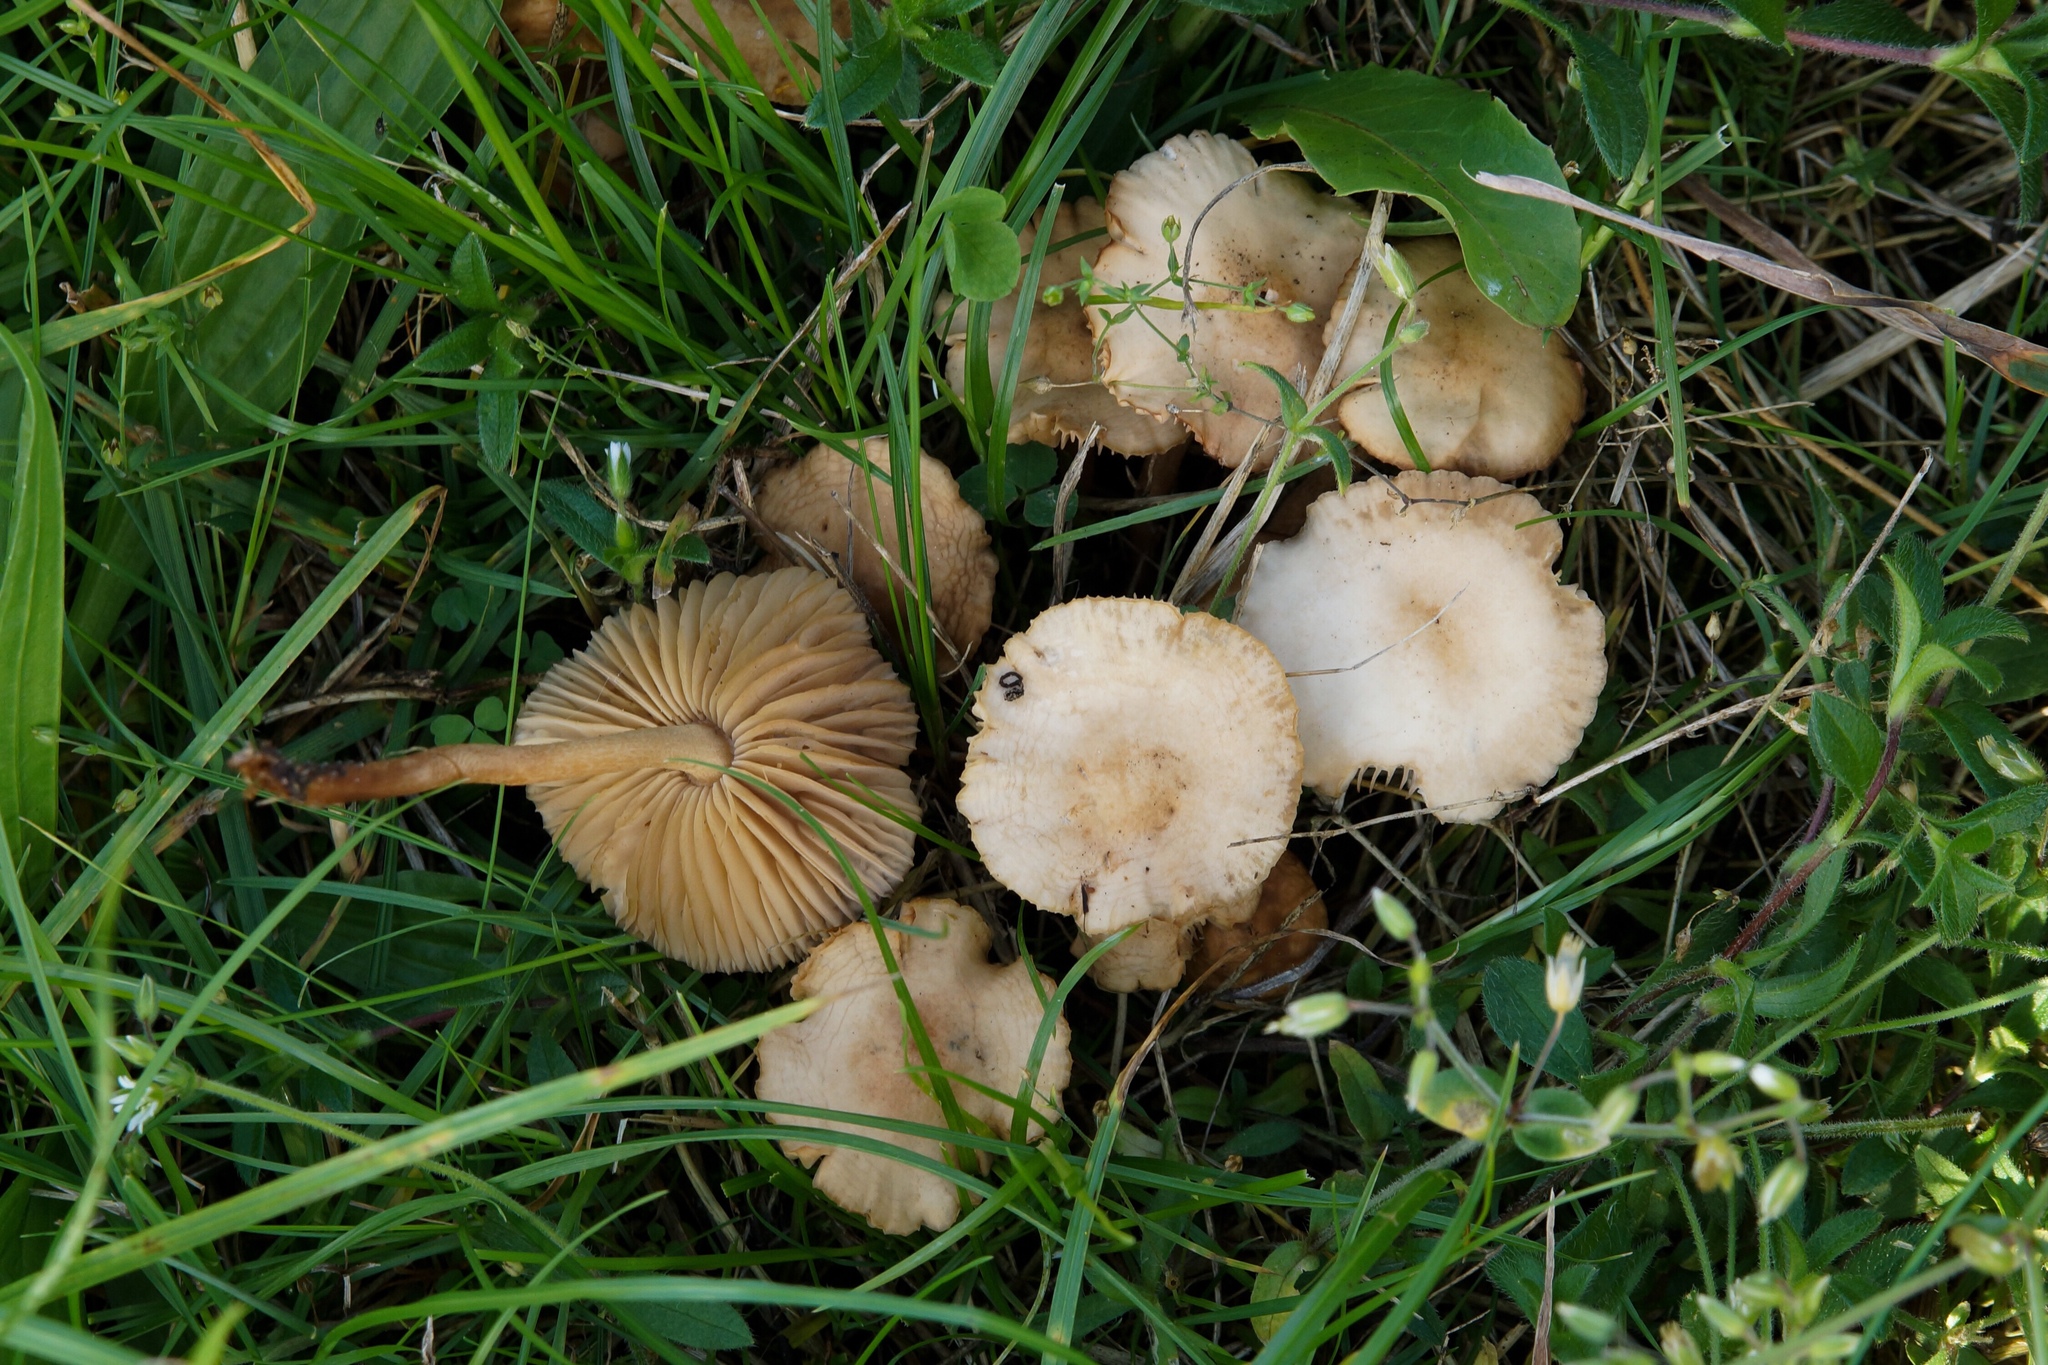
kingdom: Fungi
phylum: Basidiomycota
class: Agaricomycetes
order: Agaricales
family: Marasmiaceae
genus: Marasmius
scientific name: Marasmius oreades
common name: Fairy ring champignon
